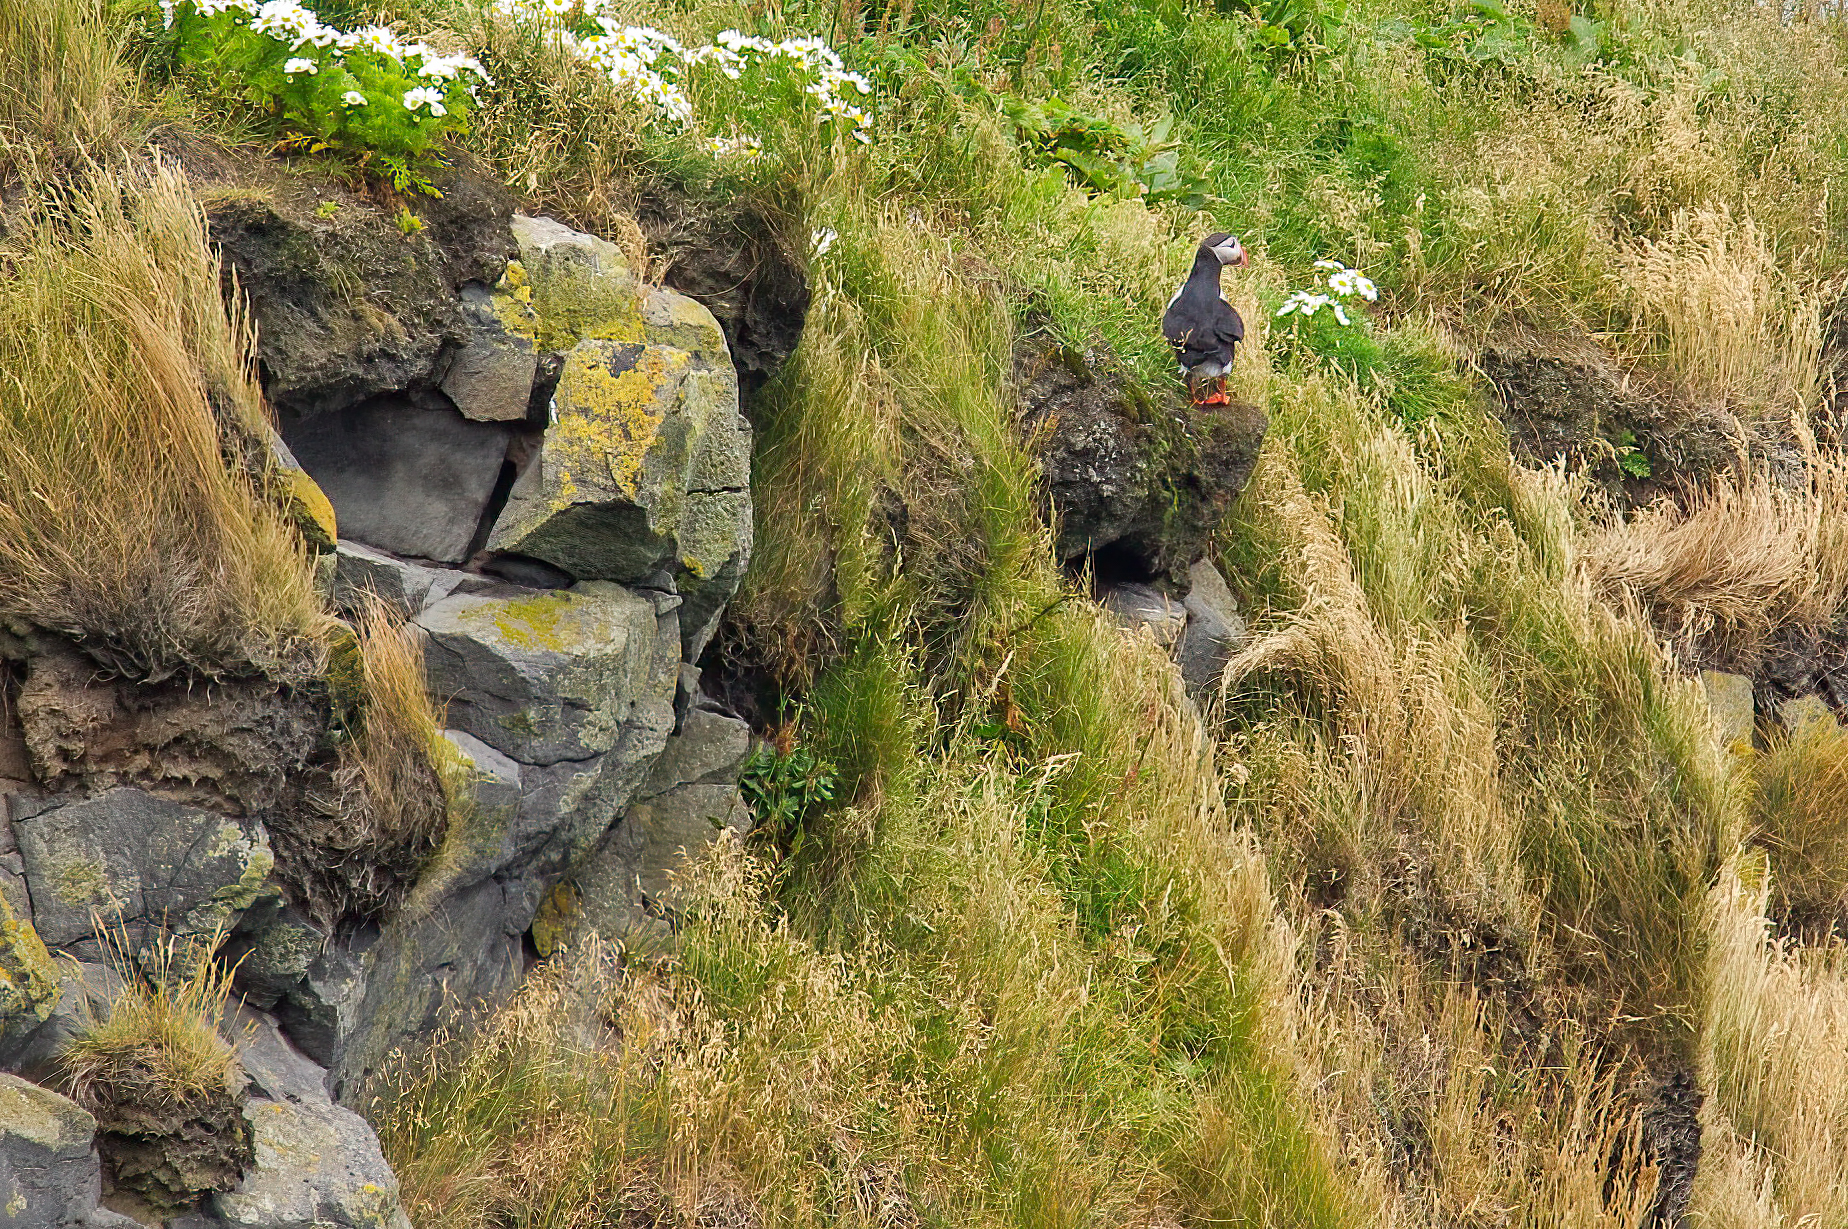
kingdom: Animalia
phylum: Chordata
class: Aves
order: Charadriiformes
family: Alcidae
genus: Fratercula
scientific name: Fratercula arctica
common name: Atlantic puffin
